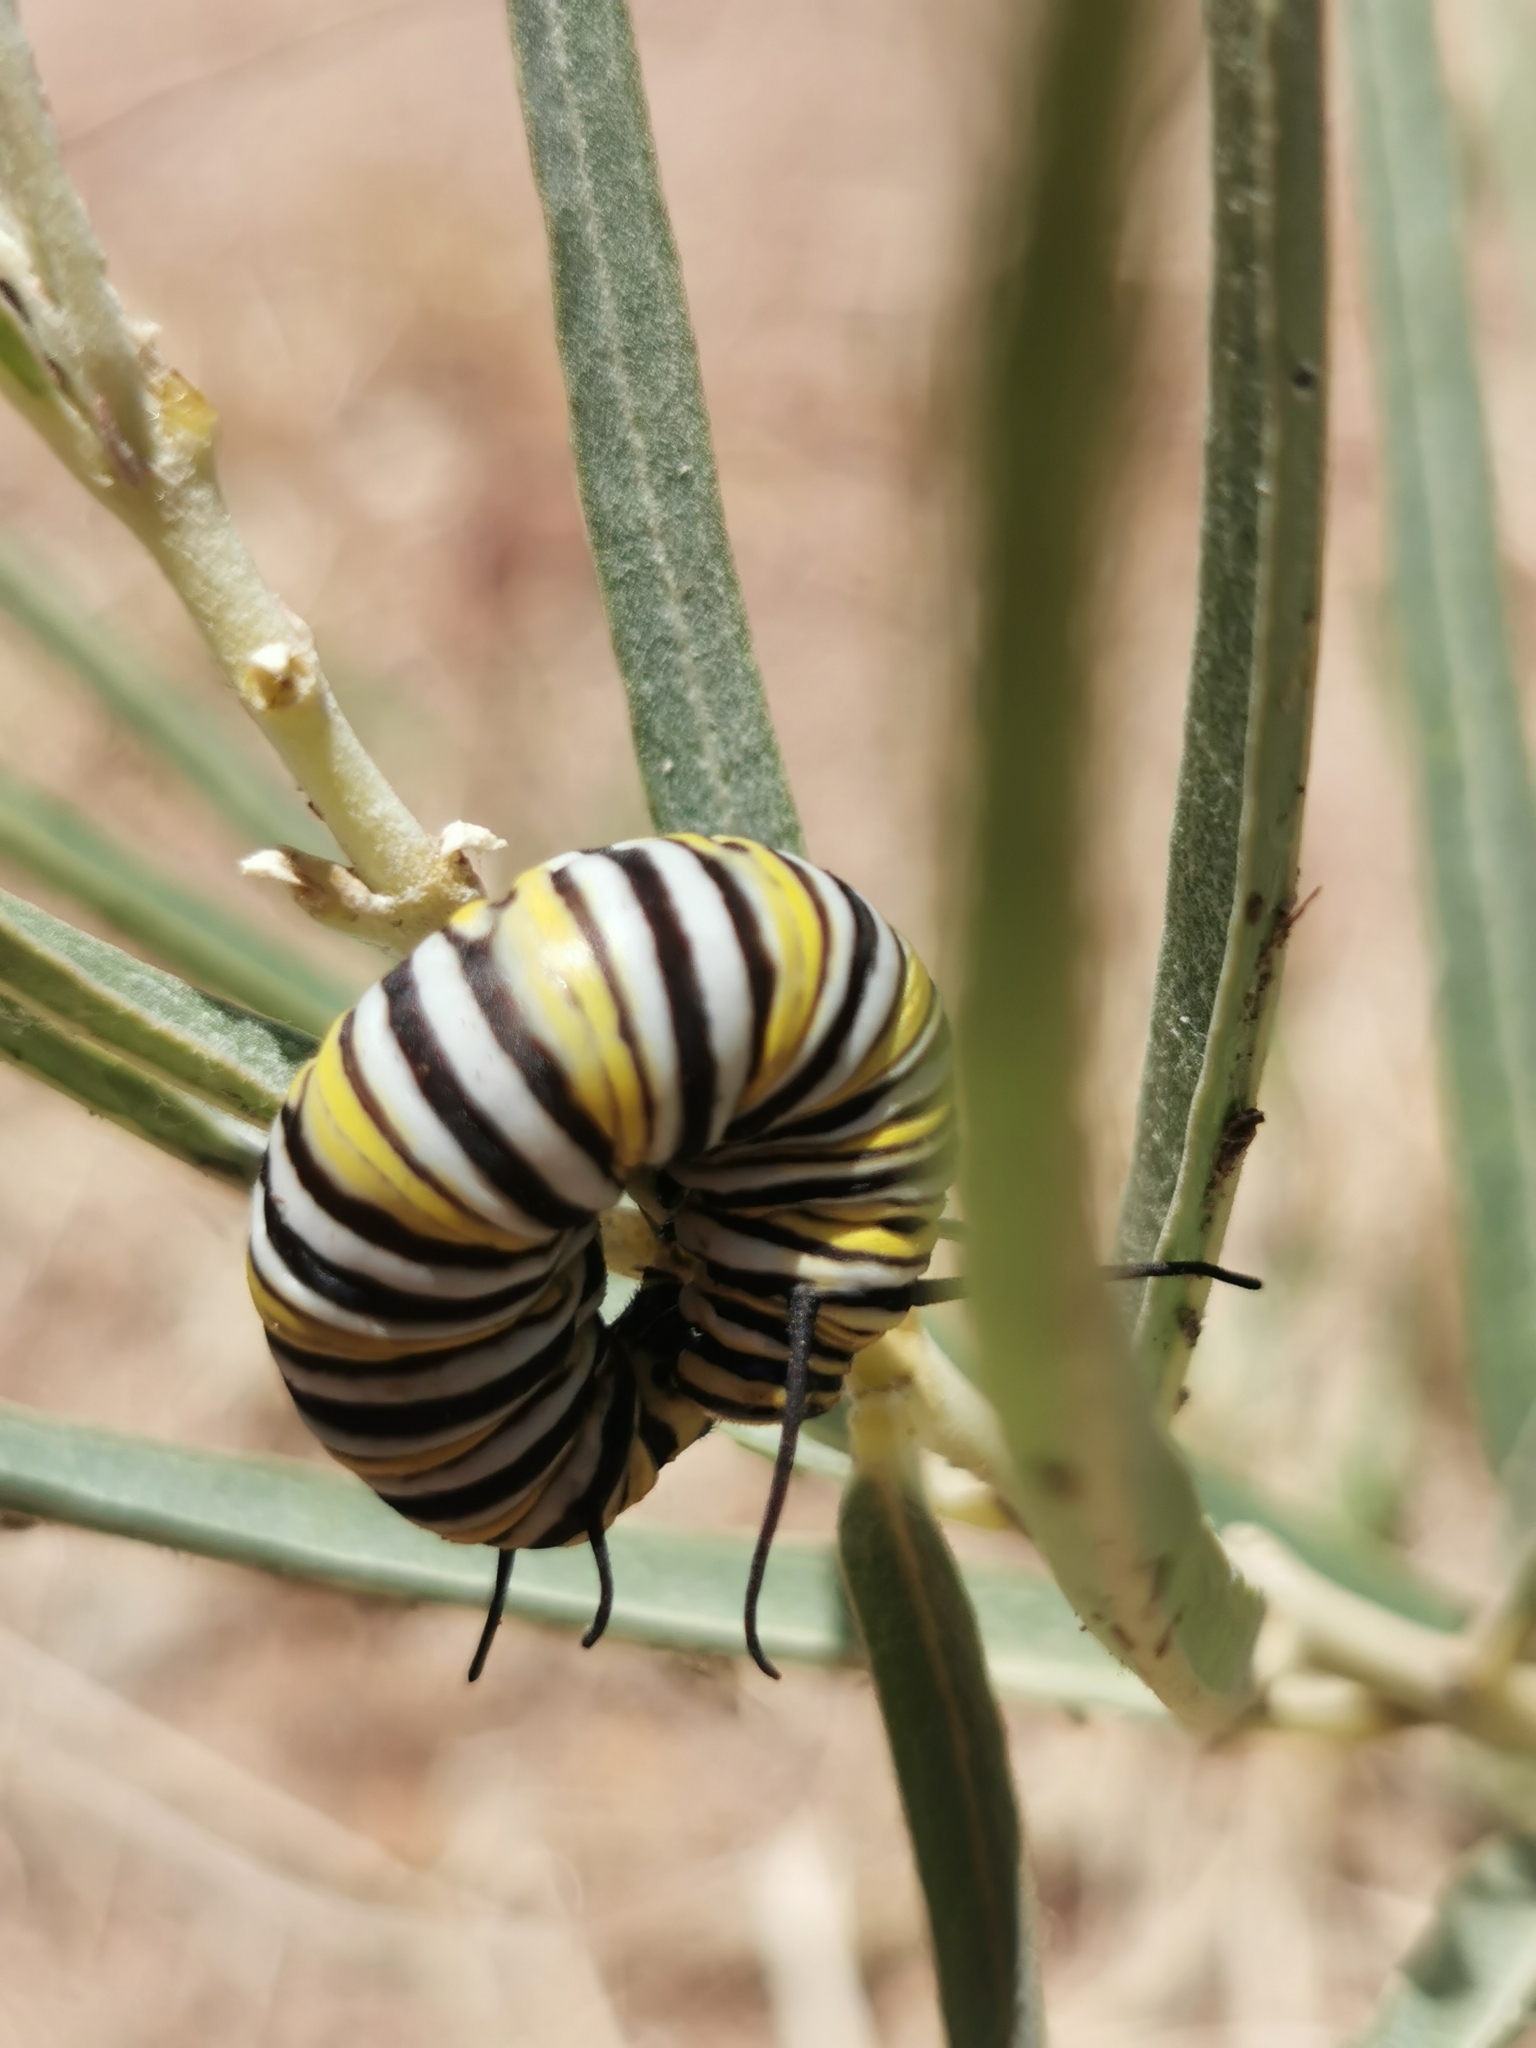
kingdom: Animalia
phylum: Arthropoda
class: Insecta
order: Lepidoptera
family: Nymphalidae
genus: Danaus
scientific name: Danaus plexippus
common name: Monarch
